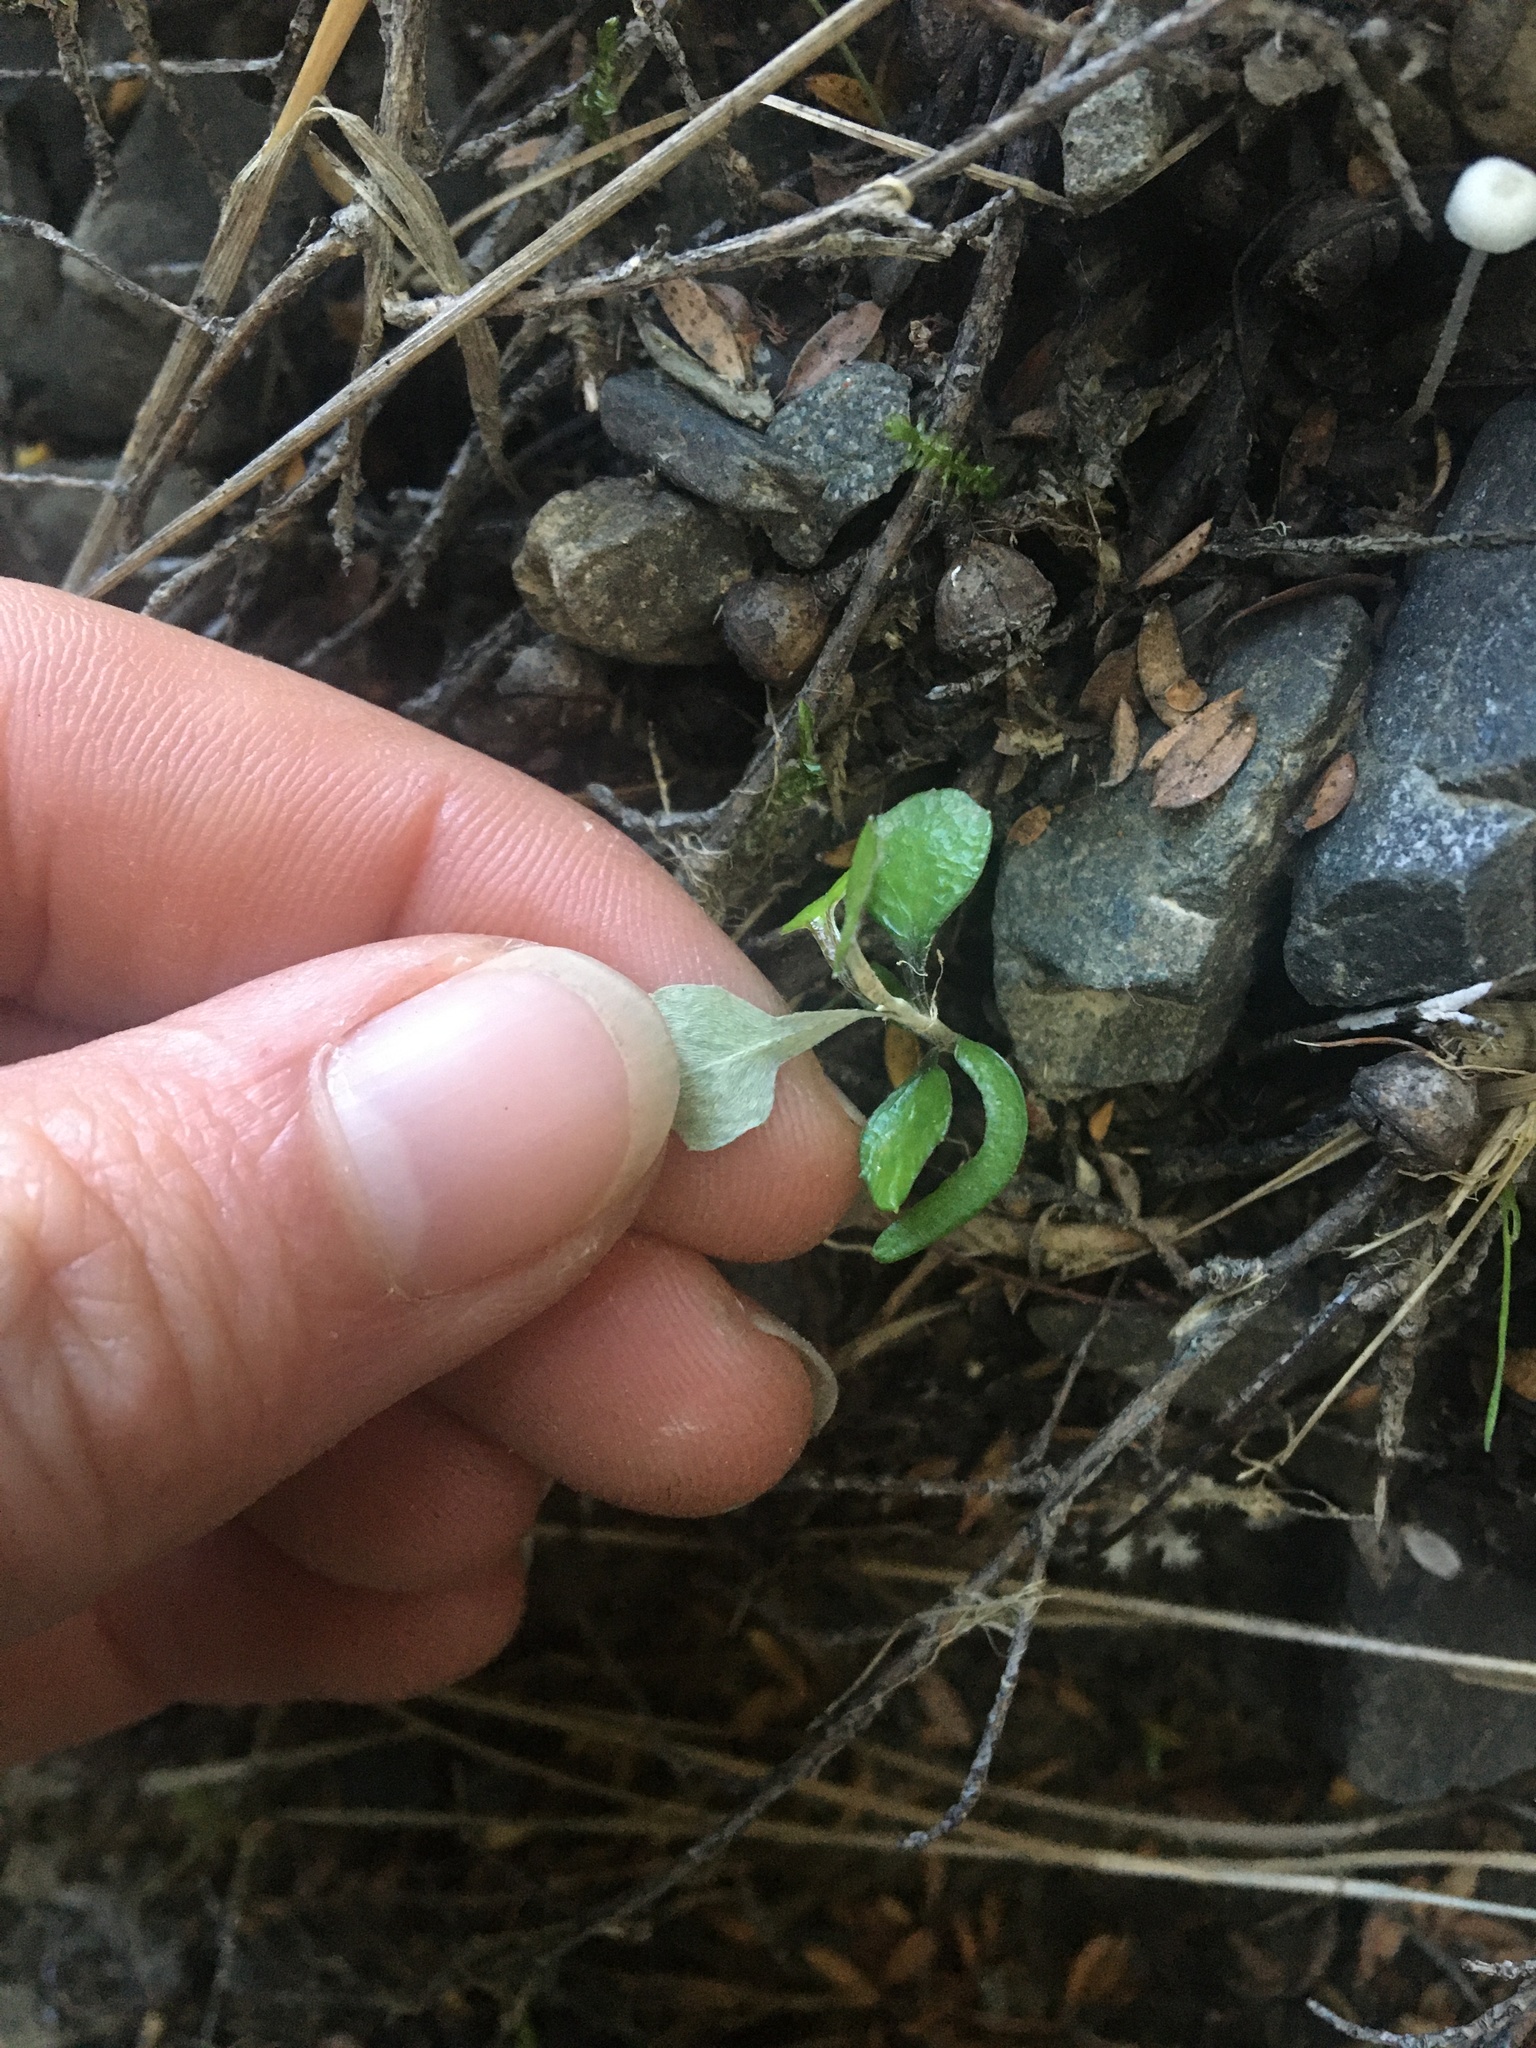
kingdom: Plantae
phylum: Tracheophyta
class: Magnoliopsida
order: Asterales
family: Argophyllaceae
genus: Corokia
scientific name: Corokia cotoneaster
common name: Wire nettingbush
